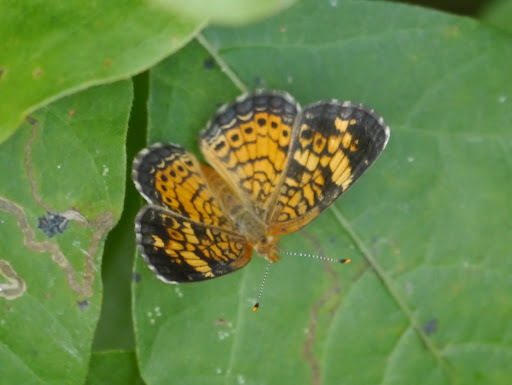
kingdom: Animalia
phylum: Arthropoda
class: Insecta
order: Lepidoptera
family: Nymphalidae
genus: Phyciodes
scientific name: Phyciodes tharos
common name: Pearl crescent
